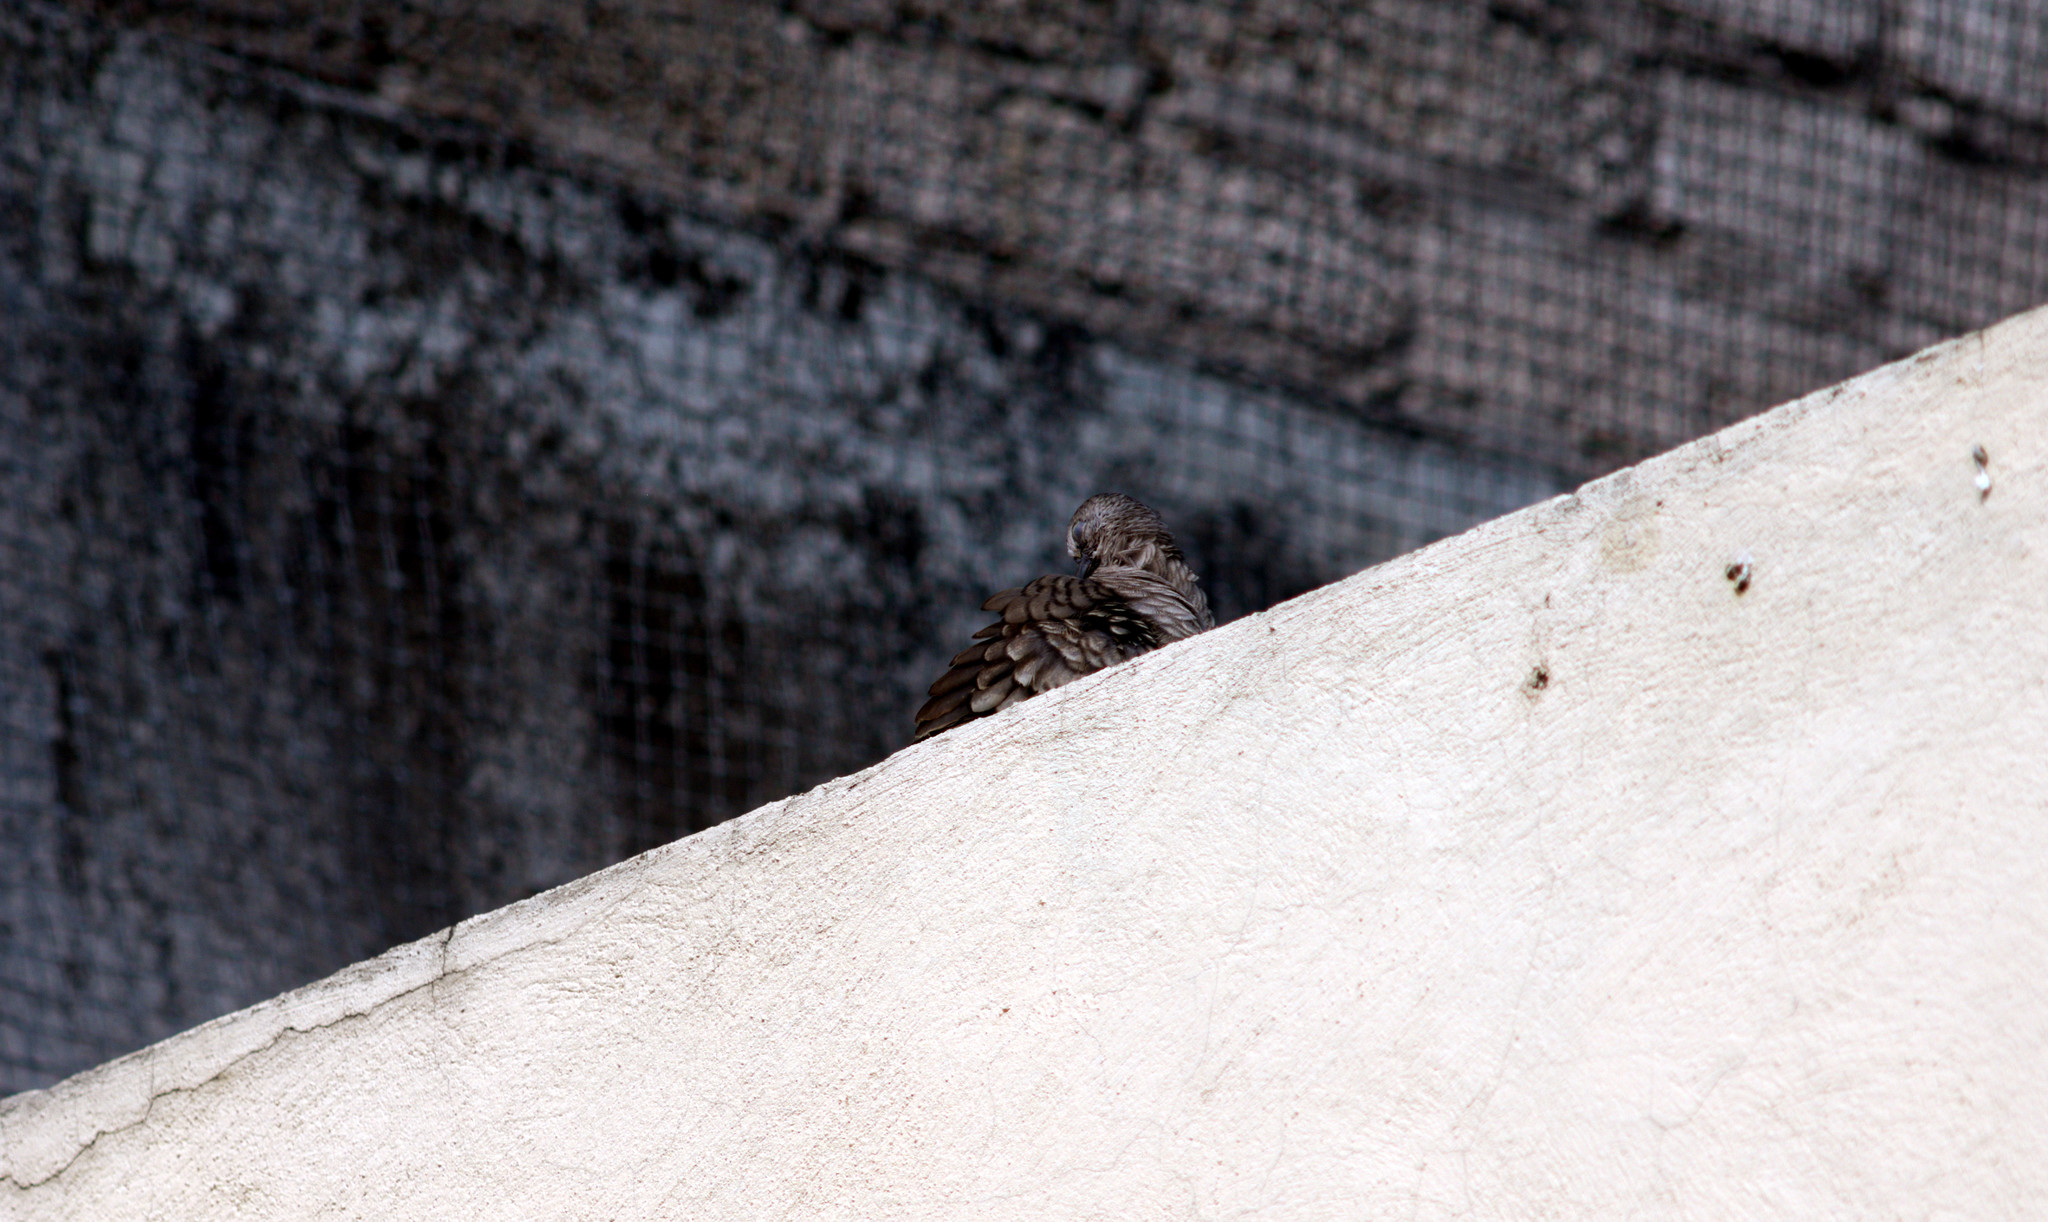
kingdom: Animalia
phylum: Chordata
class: Aves
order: Columbiformes
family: Columbidae
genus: Columbina
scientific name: Columbina inca
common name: Inca dove
